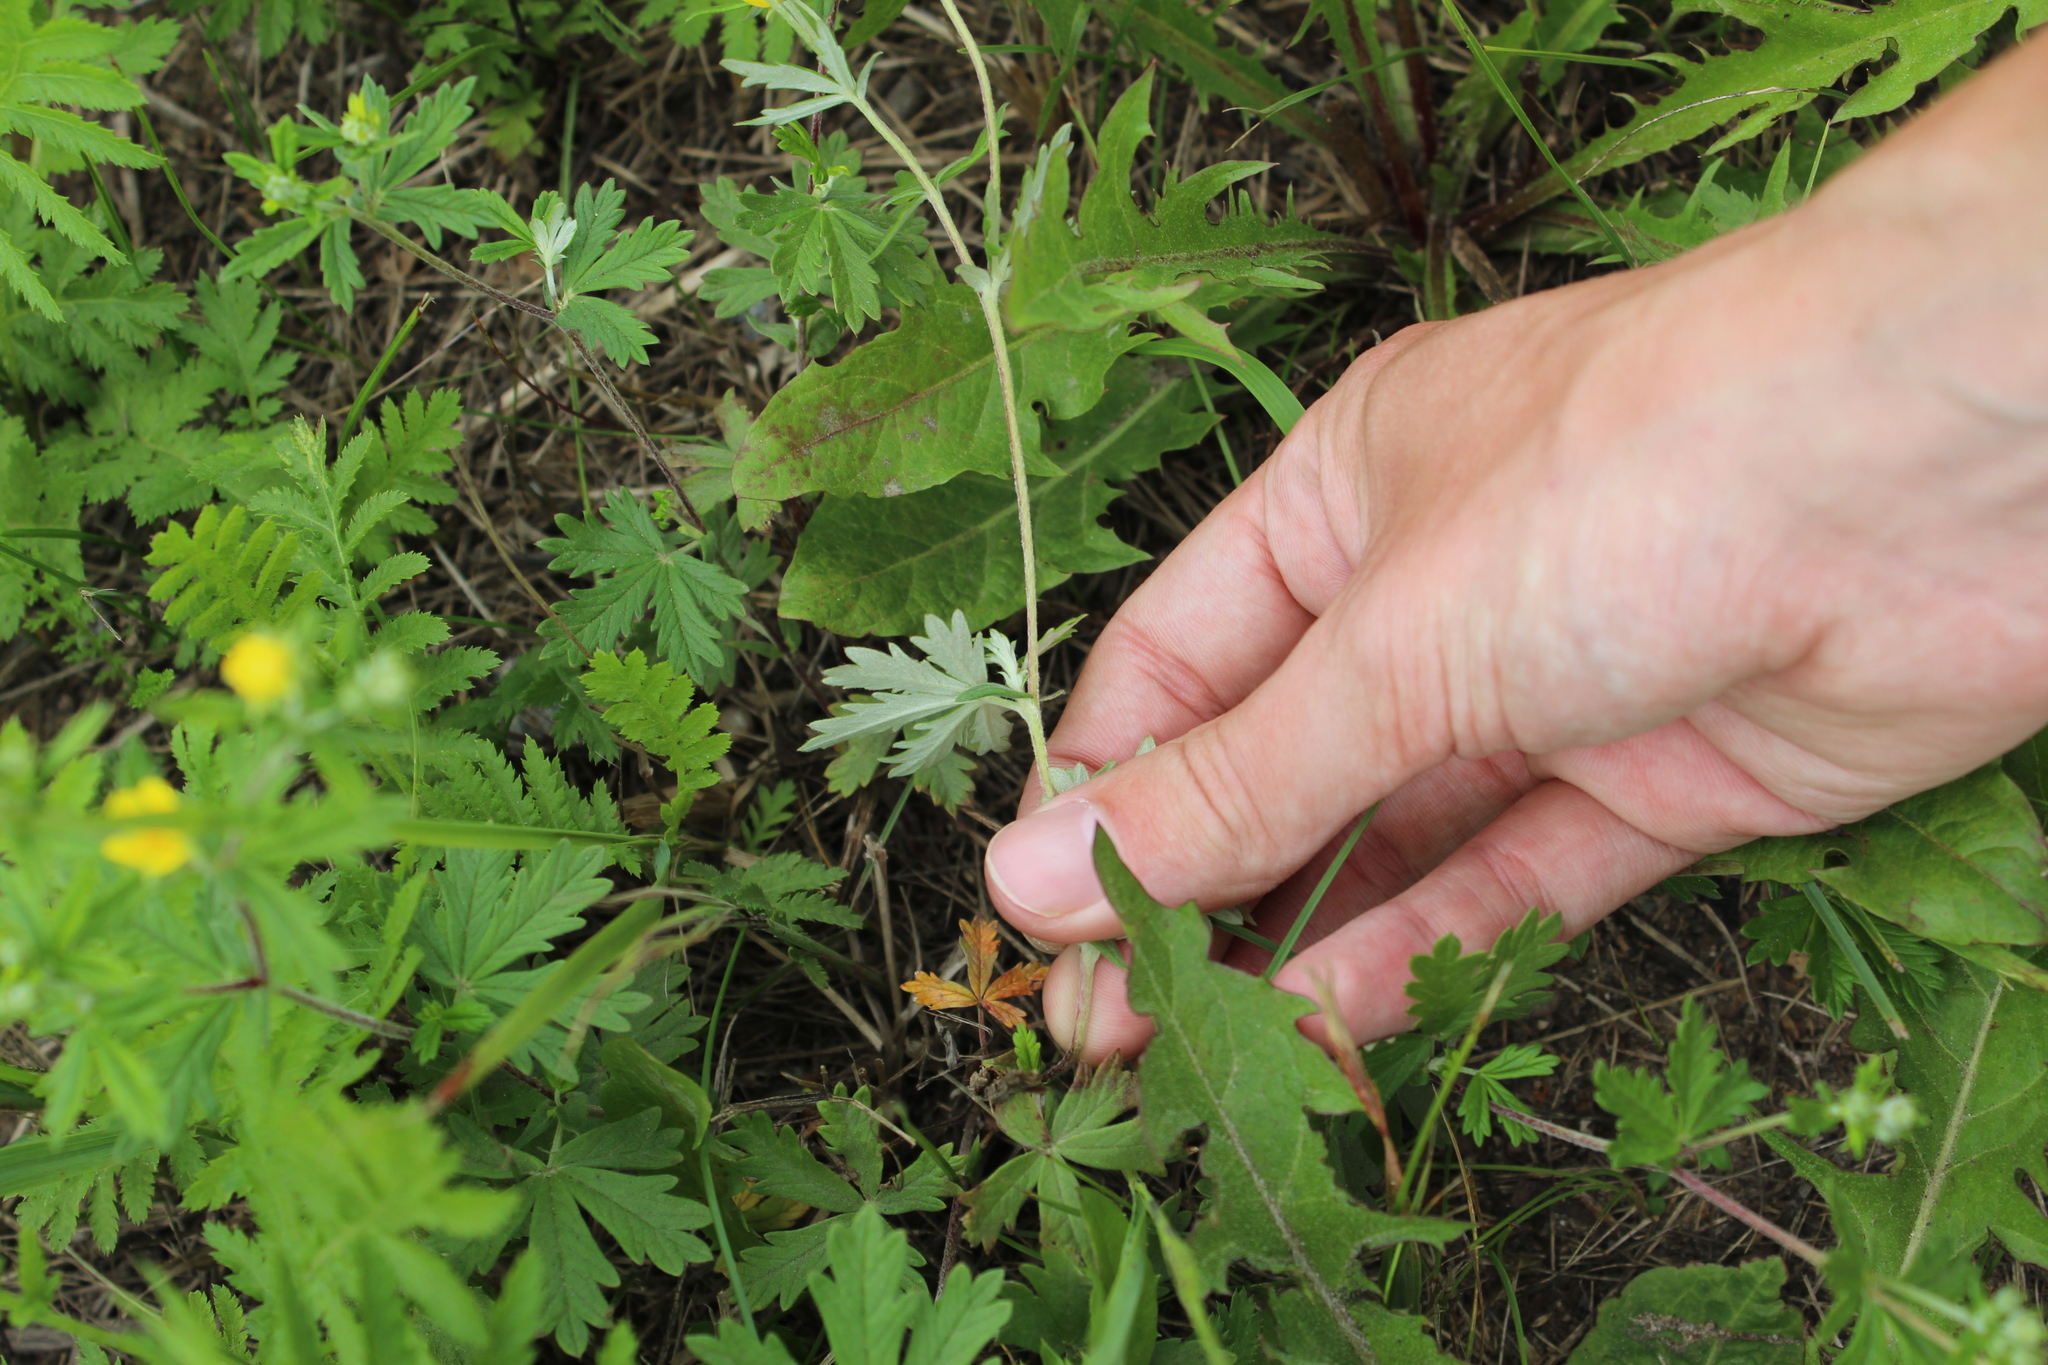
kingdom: Plantae
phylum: Tracheophyta
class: Magnoliopsida
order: Rosales
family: Rosaceae
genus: Potentilla
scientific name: Potentilla argentea
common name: Hoary cinquefoil
